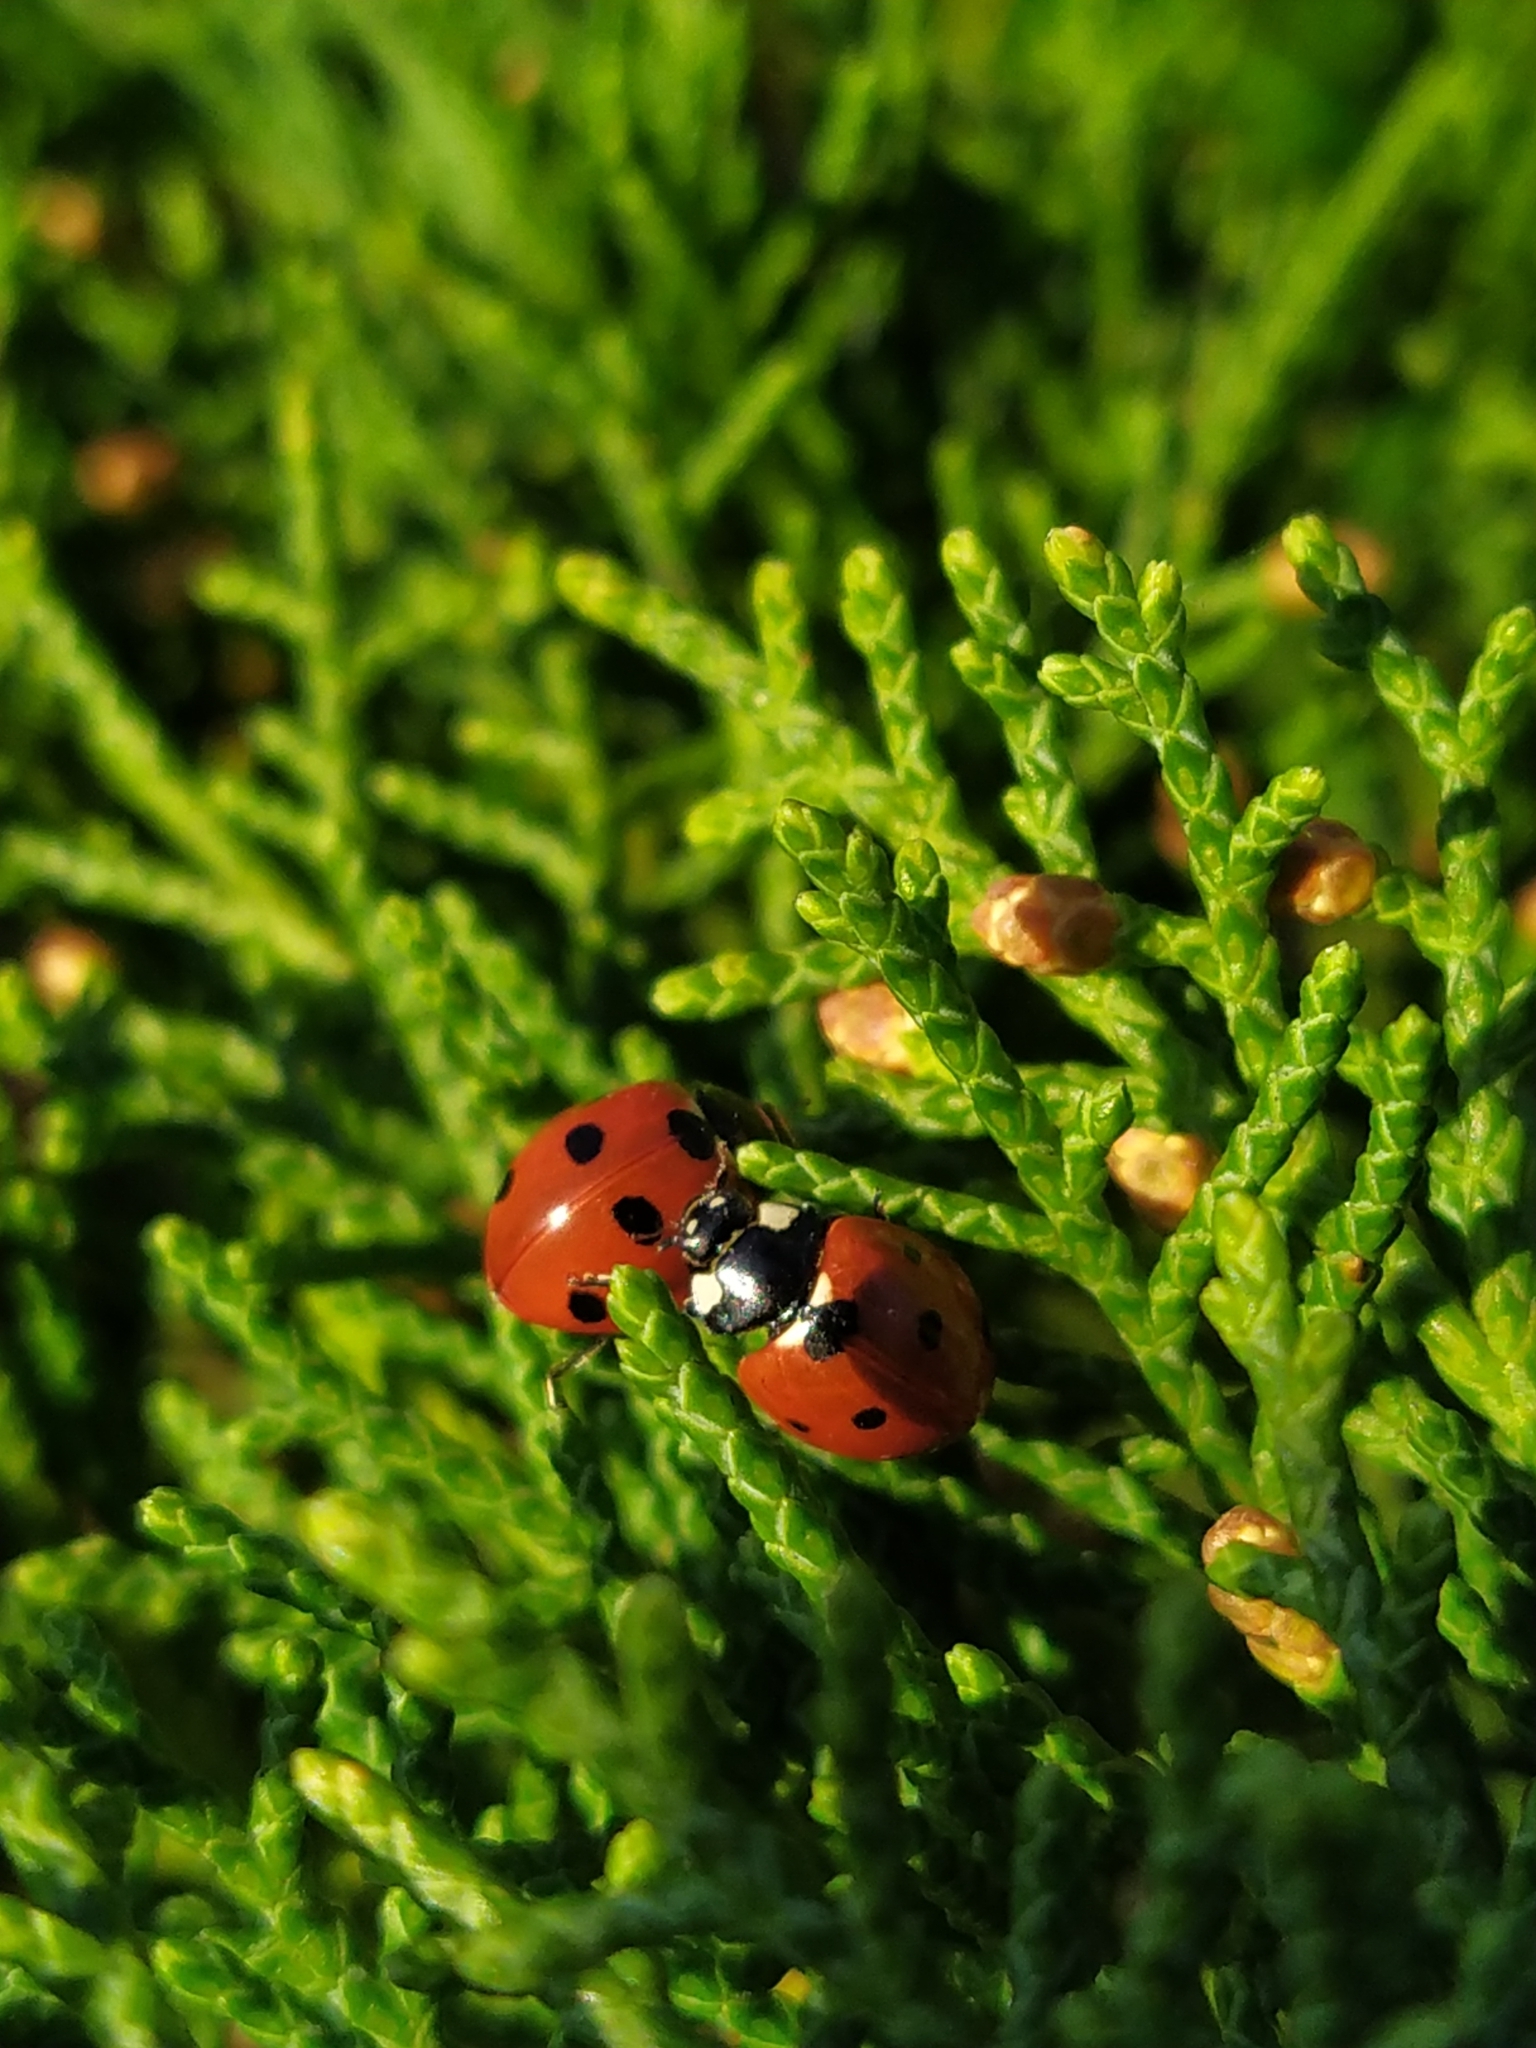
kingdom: Animalia
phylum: Arthropoda
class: Insecta
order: Coleoptera
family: Coccinellidae
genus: Coccinella
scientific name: Coccinella septempunctata
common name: Sevenspotted lady beetle
